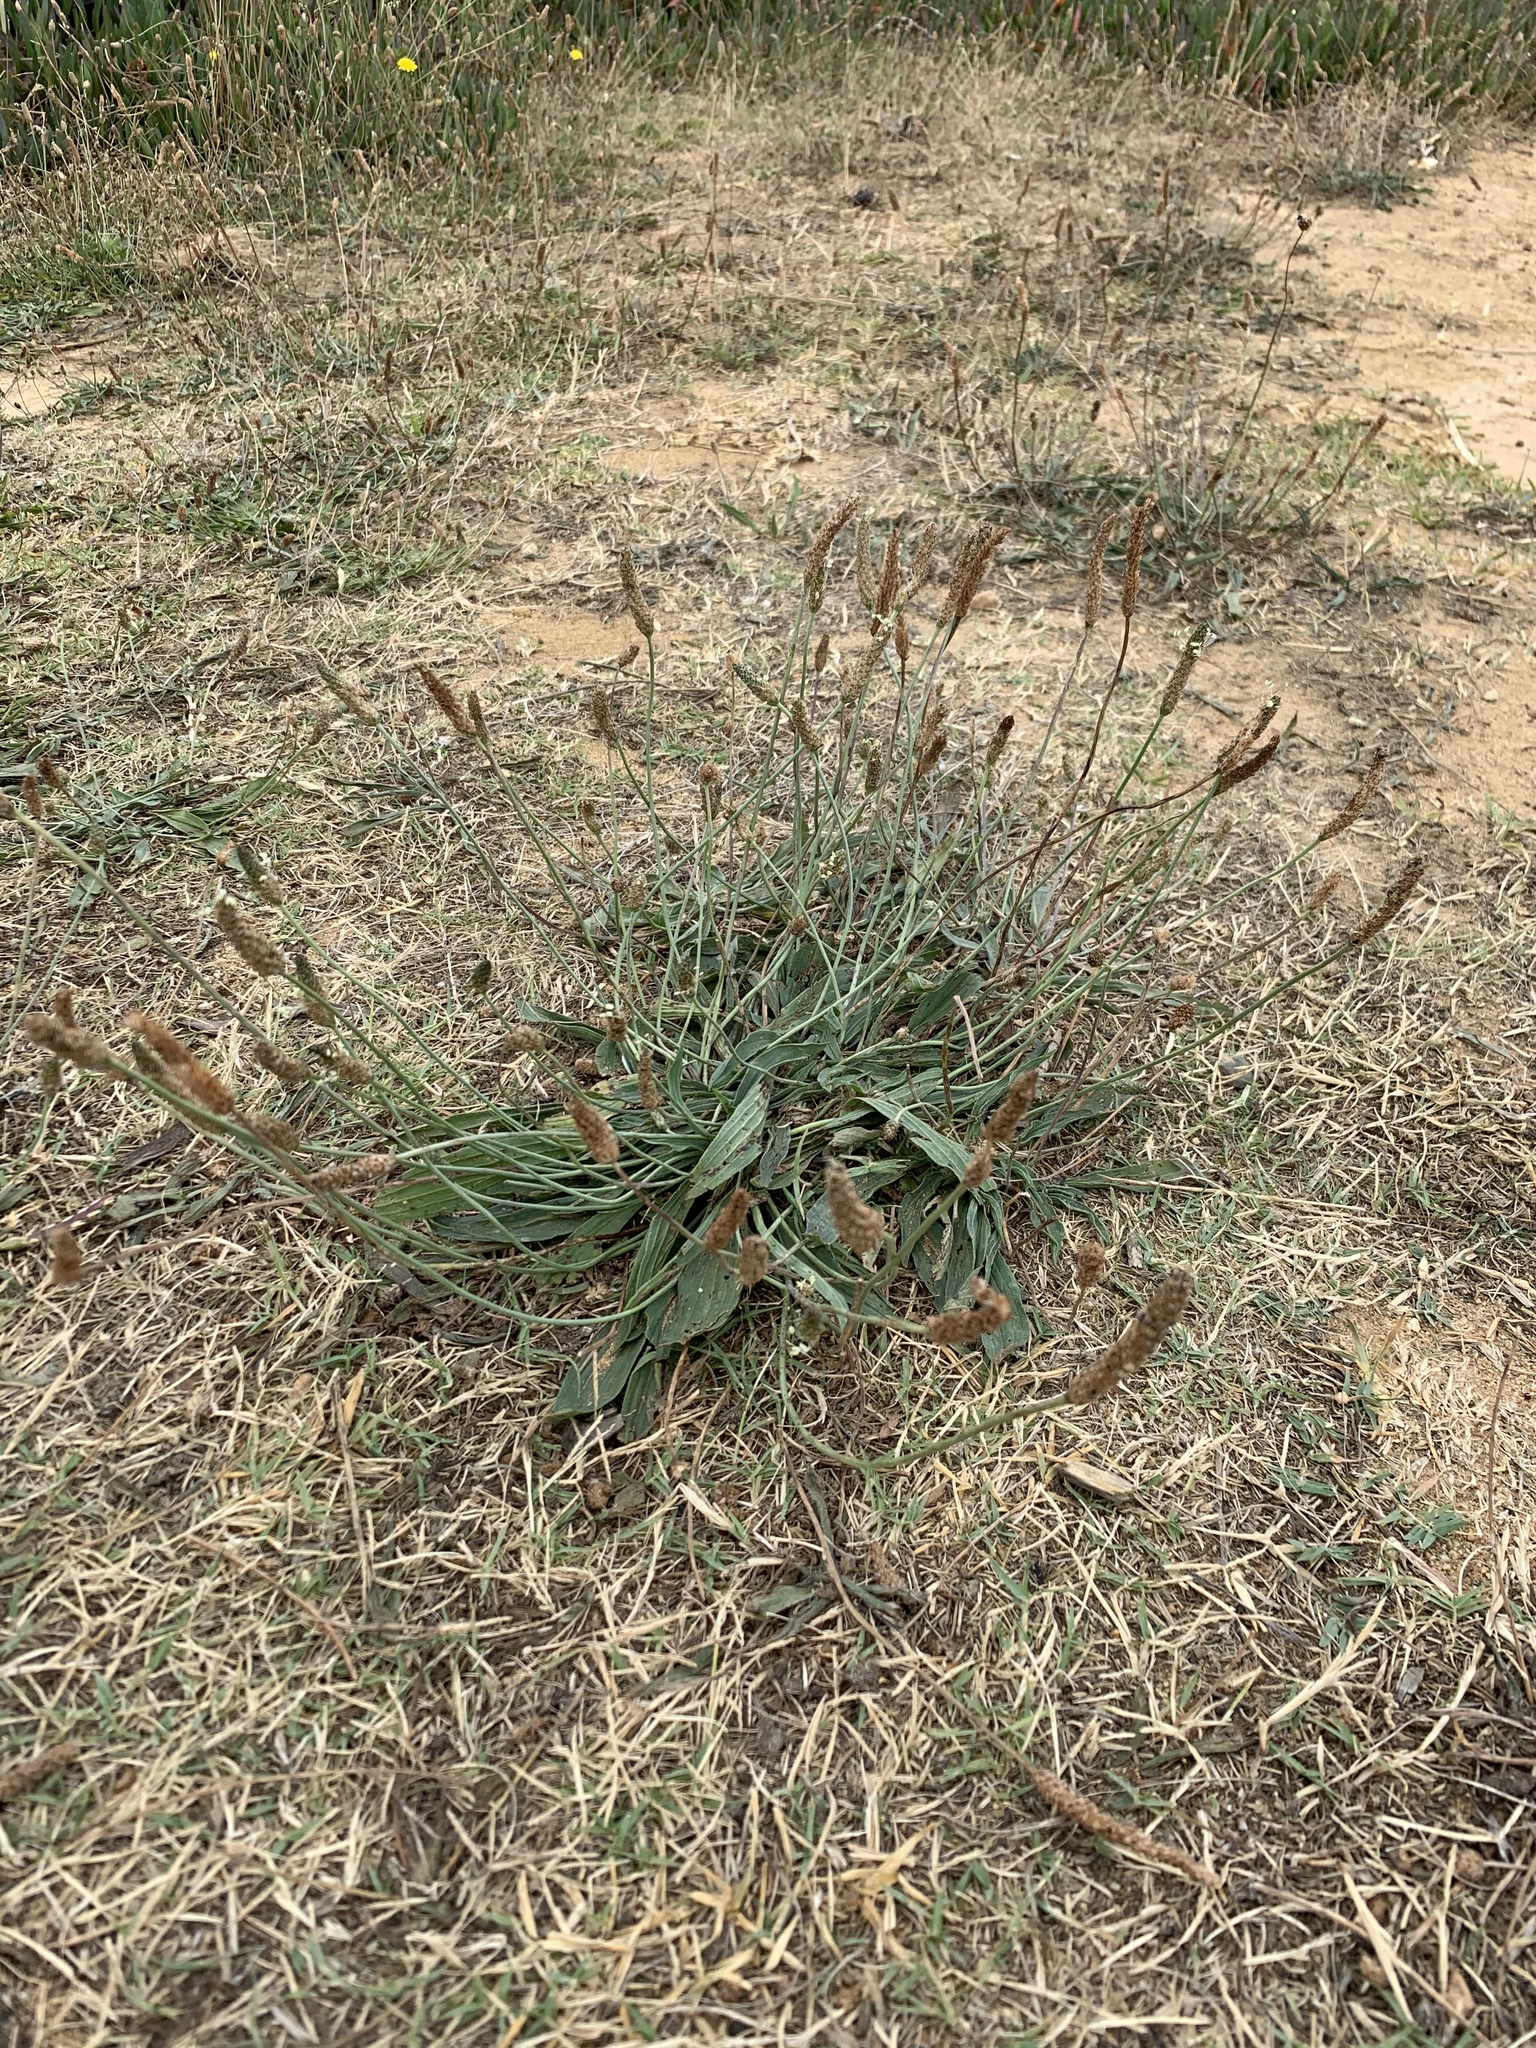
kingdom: Plantae
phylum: Tracheophyta
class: Magnoliopsida
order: Lamiales
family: Plantaginaceae
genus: Plantago
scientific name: Plantago lanceolata
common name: Ribwort plantain
